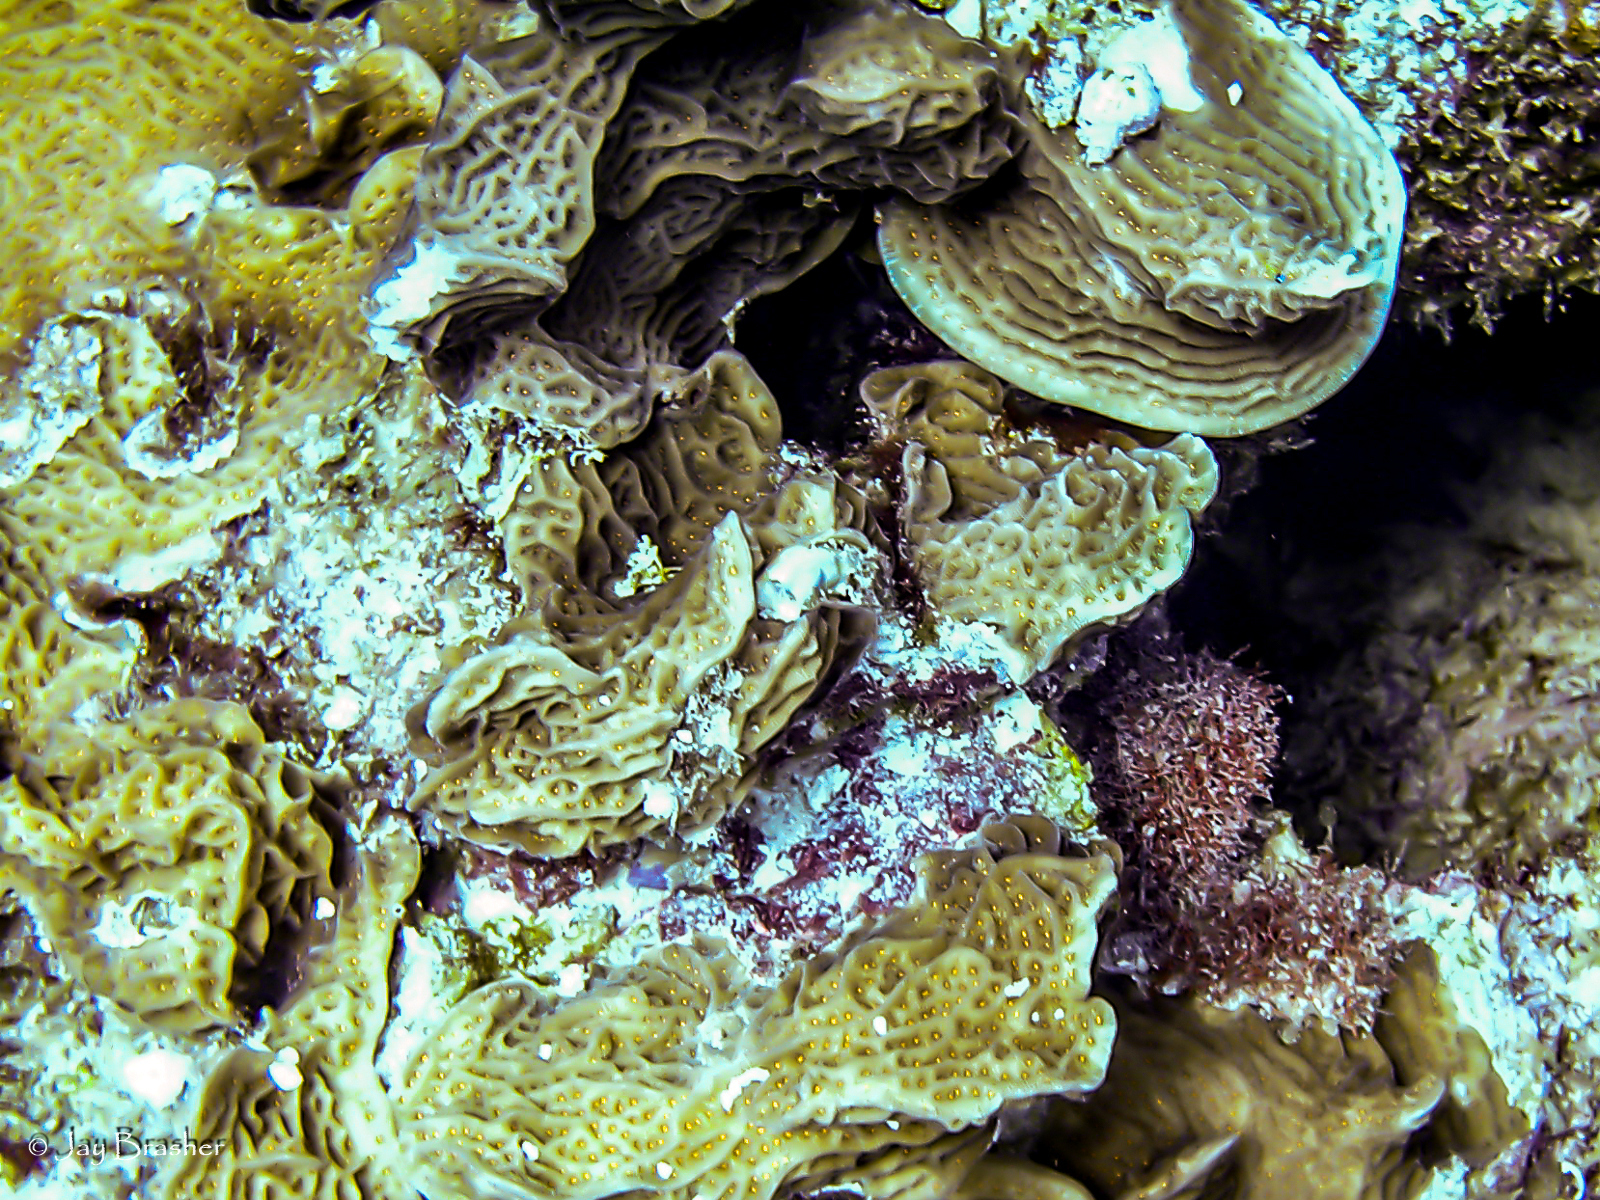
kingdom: Animalia
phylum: Cnidaria
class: Anthozoa
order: Scleractinia
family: Agariciidae
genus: Agaricia
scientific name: Agaricia agaricites
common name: Lettuce coral
